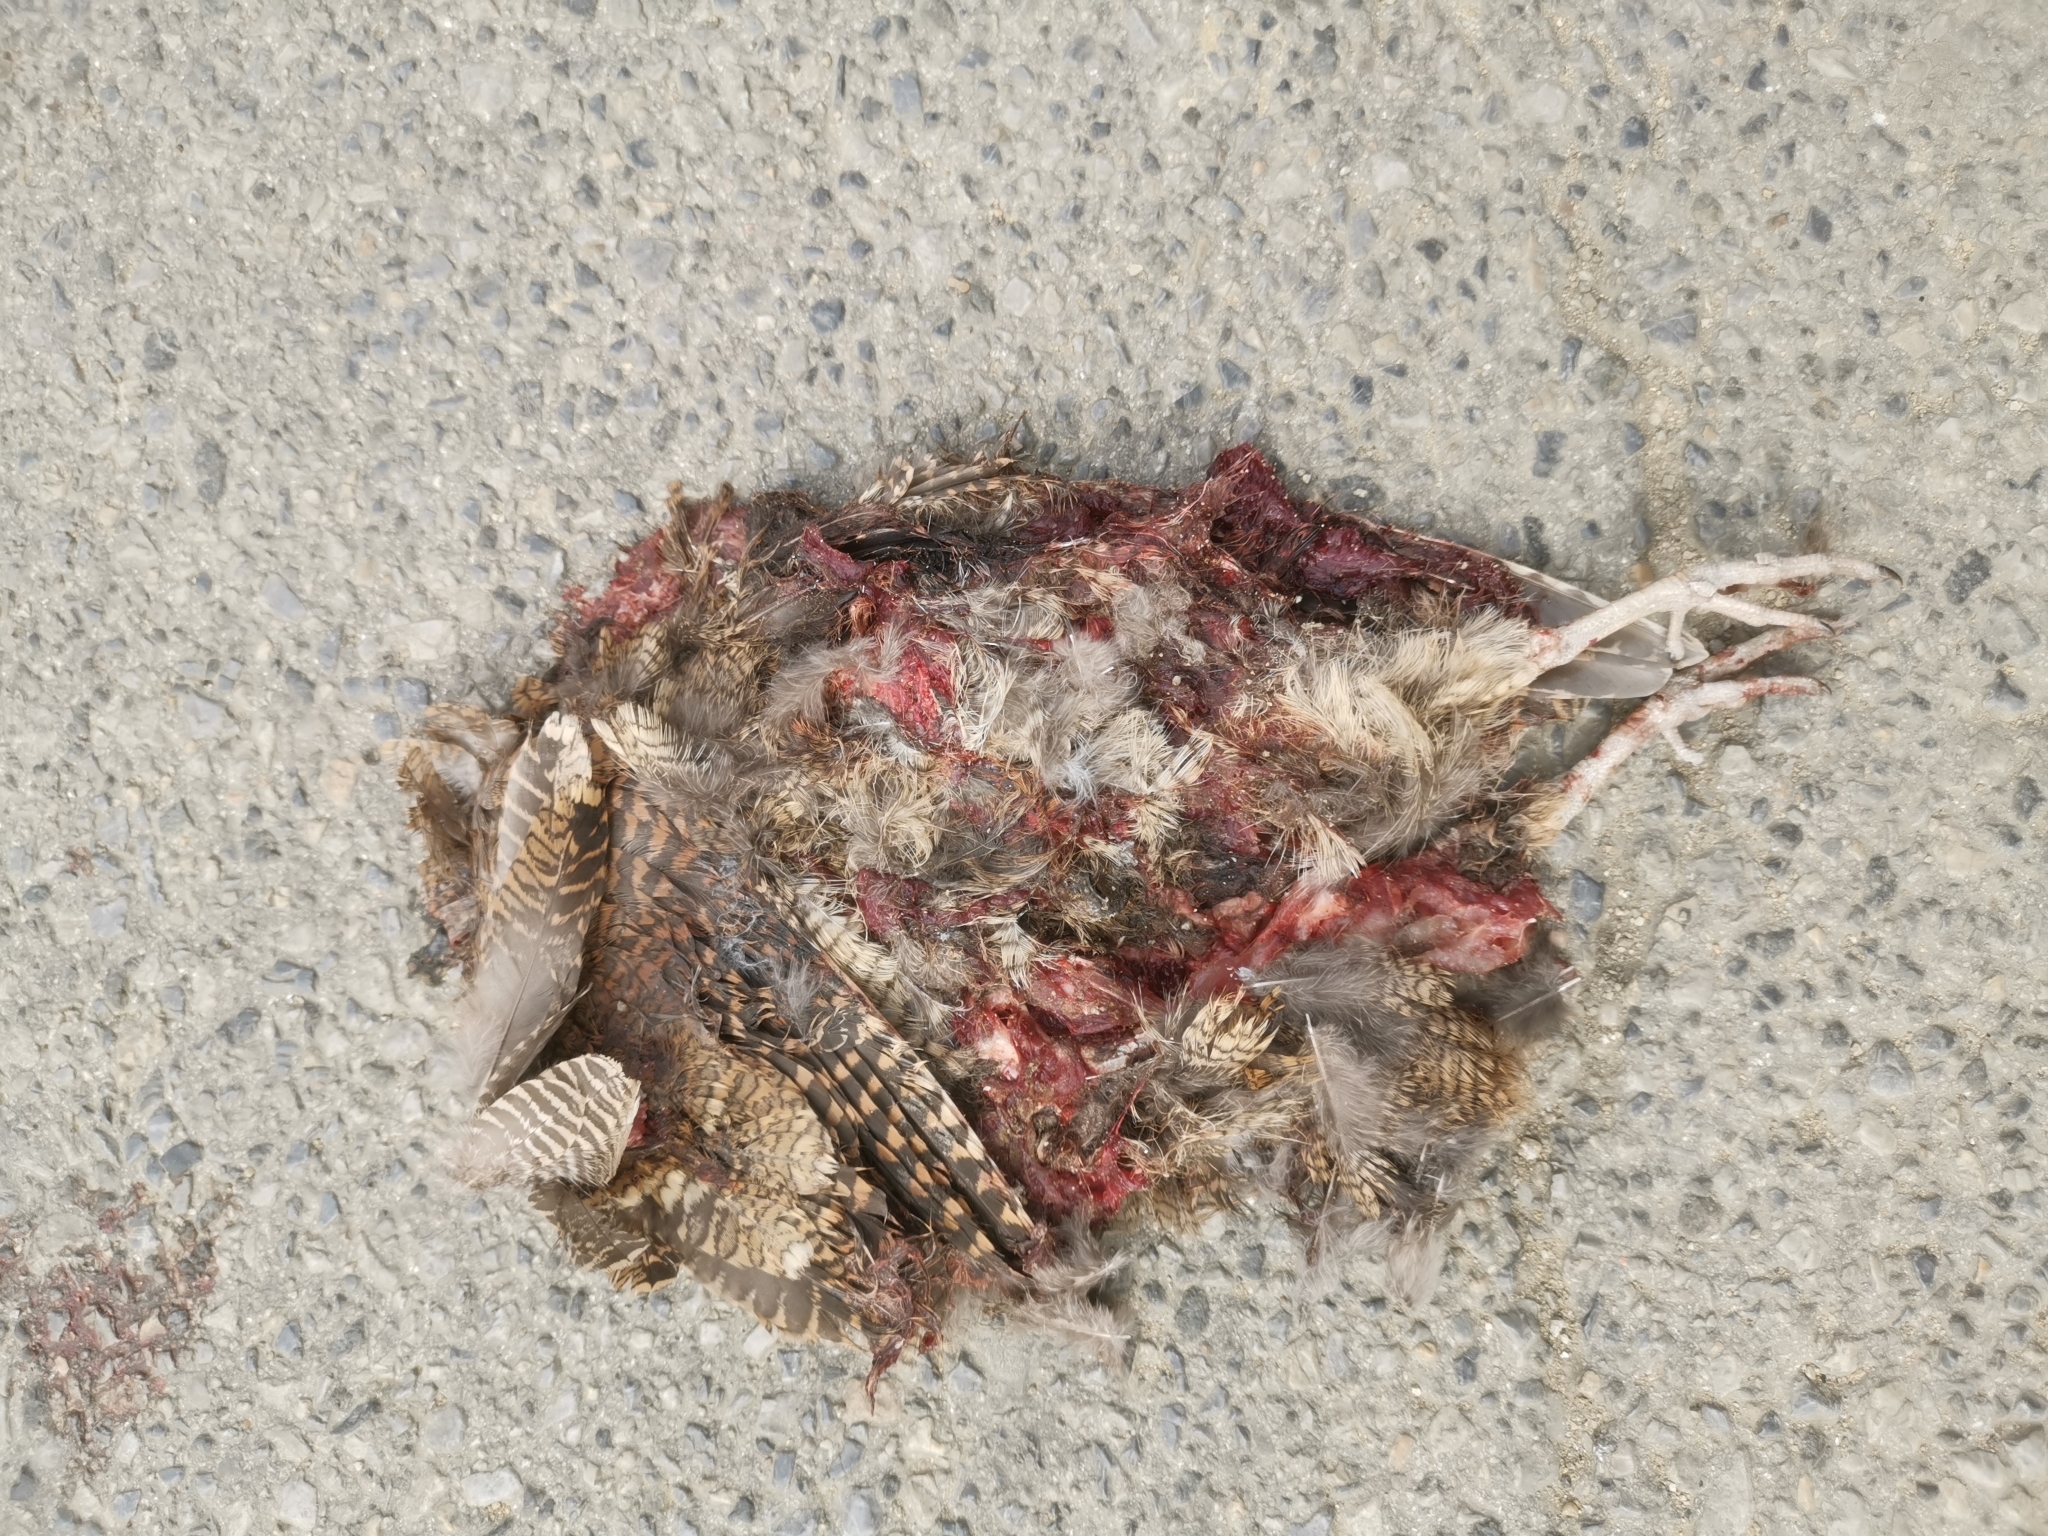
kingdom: Animalia
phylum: Chordata
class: Aves
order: Charadriiformes
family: Scolopacidae
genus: Scolopax
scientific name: Scolopax rusticola
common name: Eurasian woodcock
